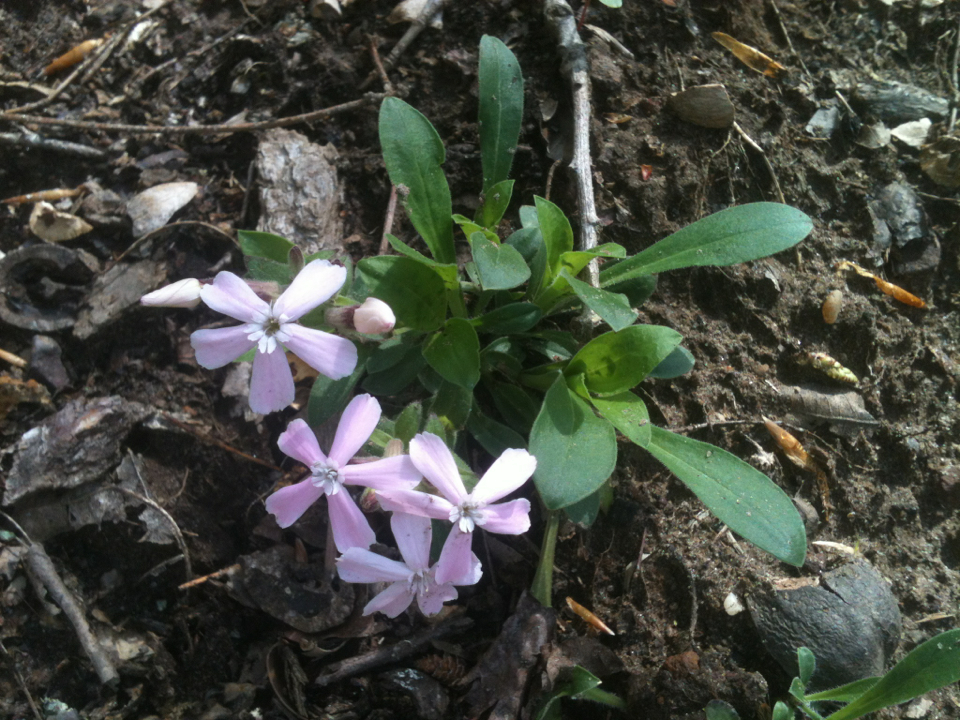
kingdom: Plantae
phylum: Tracheophyta
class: Magnoliopsida
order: Caryophyllales
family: Caryophyllaceae
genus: Silene
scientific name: Silene caroliniana
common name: Sticky catchfly
